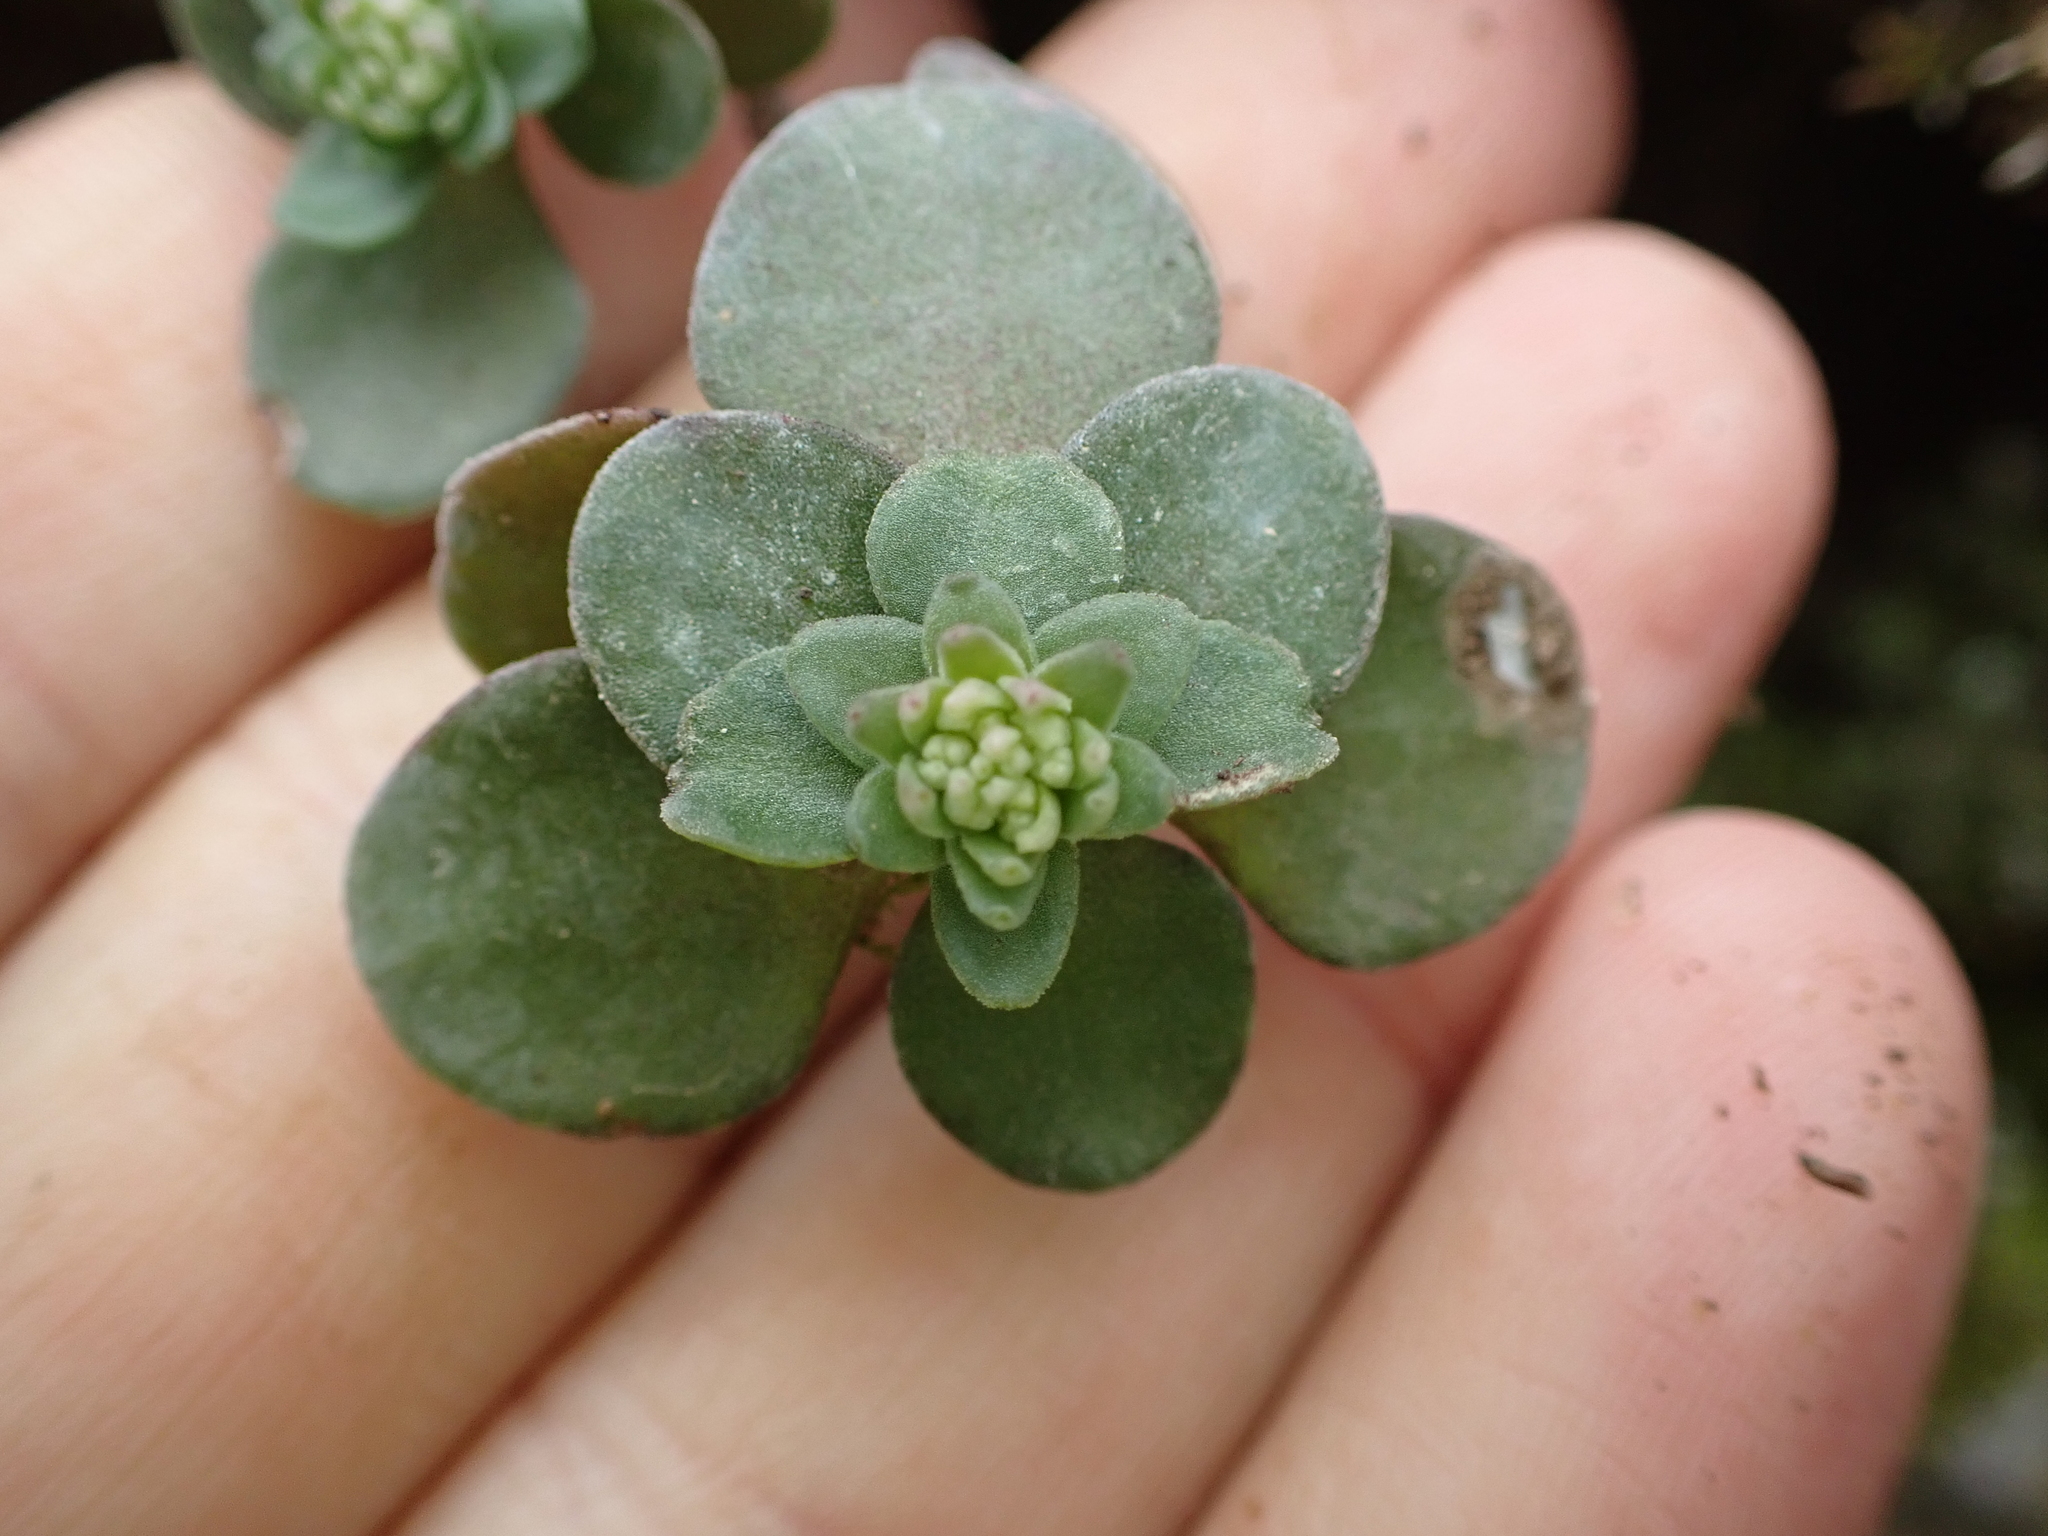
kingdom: Plantae
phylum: Tracheophyta
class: Magnoliopsida
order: Saxifragales
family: Crassulaceae
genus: Sedum
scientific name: Sedum ternatum
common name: Wild stonecrop
